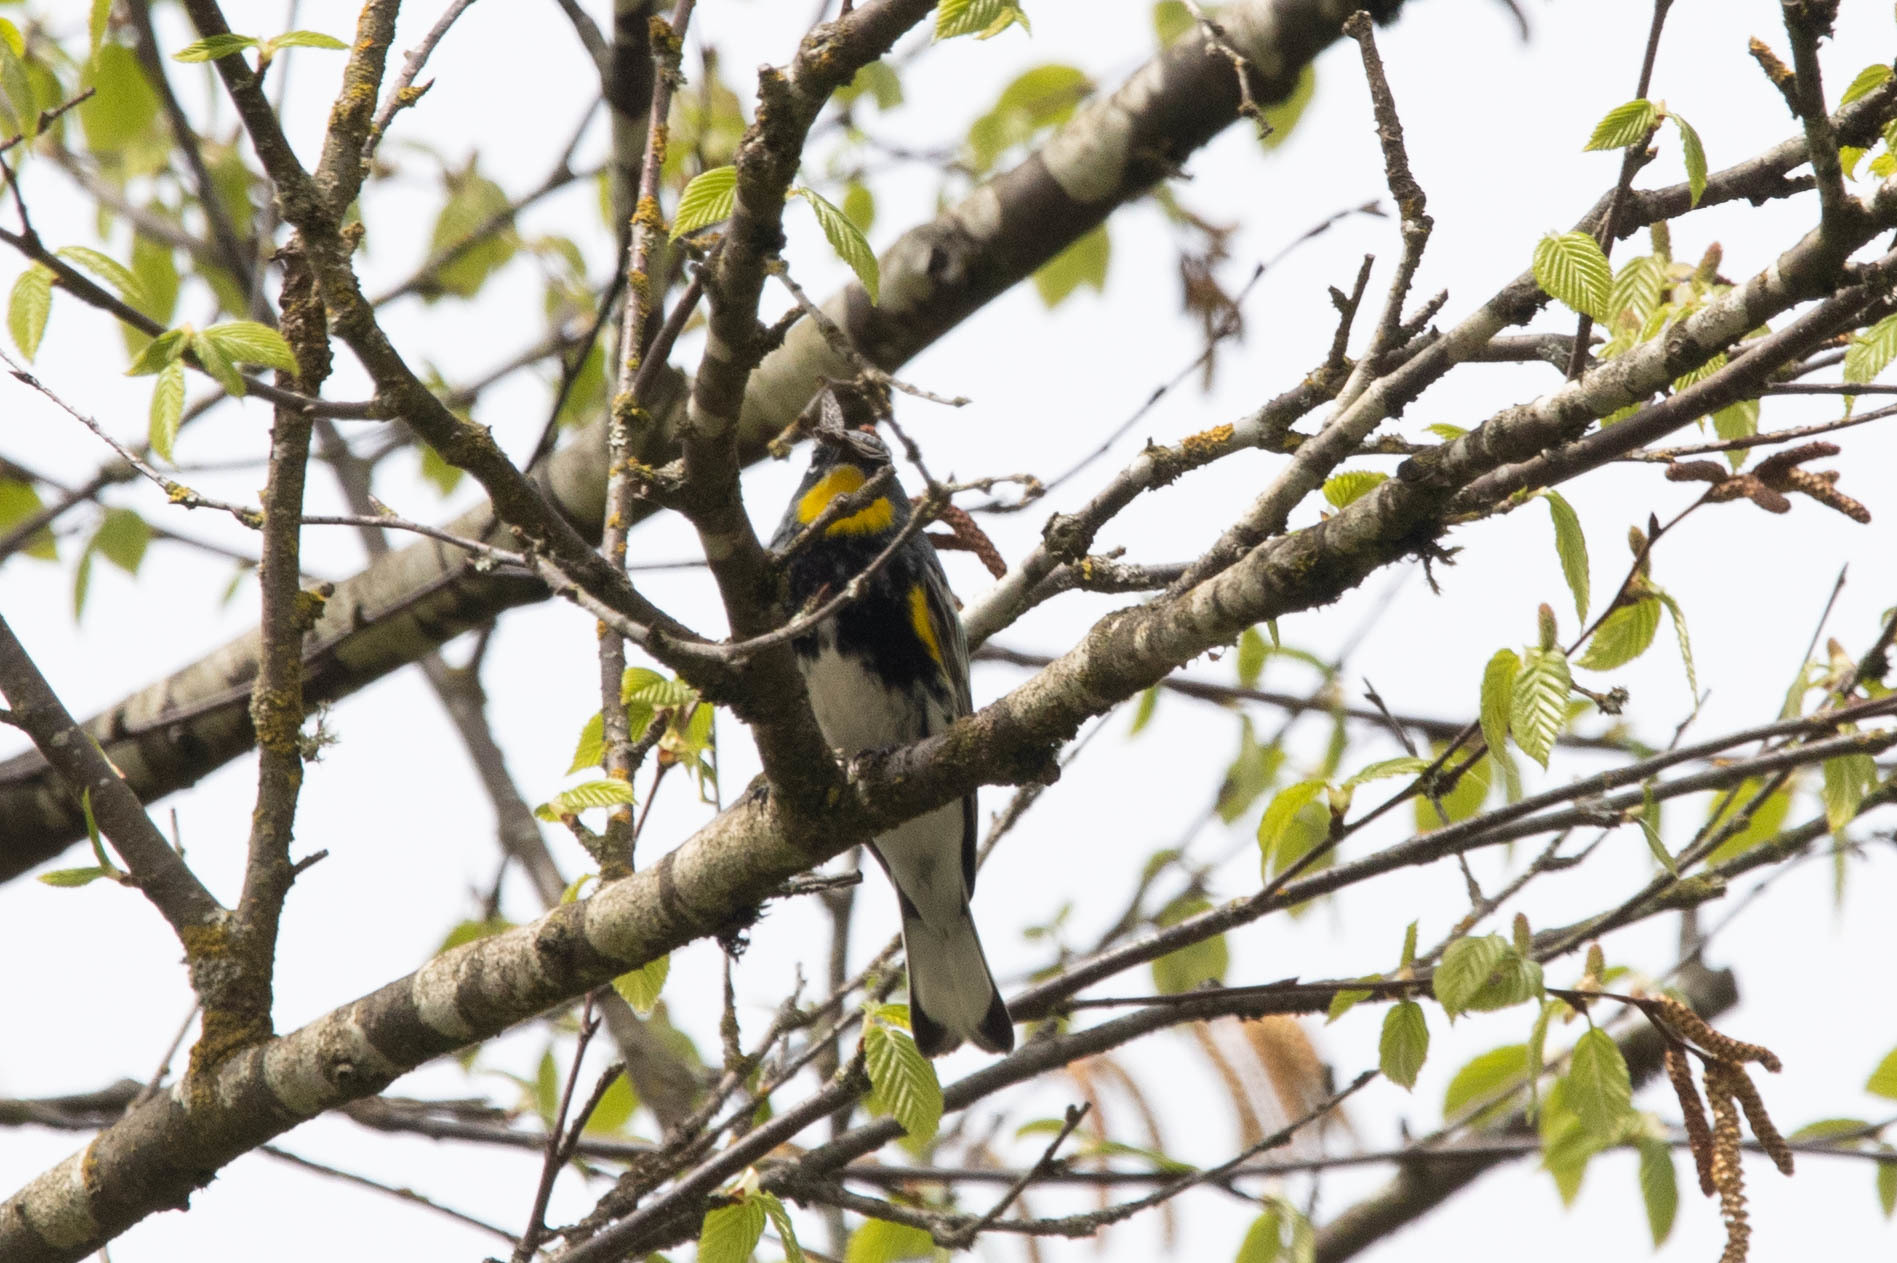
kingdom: Animalia
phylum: Chordata
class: Aves
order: Passeriformes
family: Parulidae
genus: Setophaga
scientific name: Setophaga auduboni
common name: Audubon's warbler
